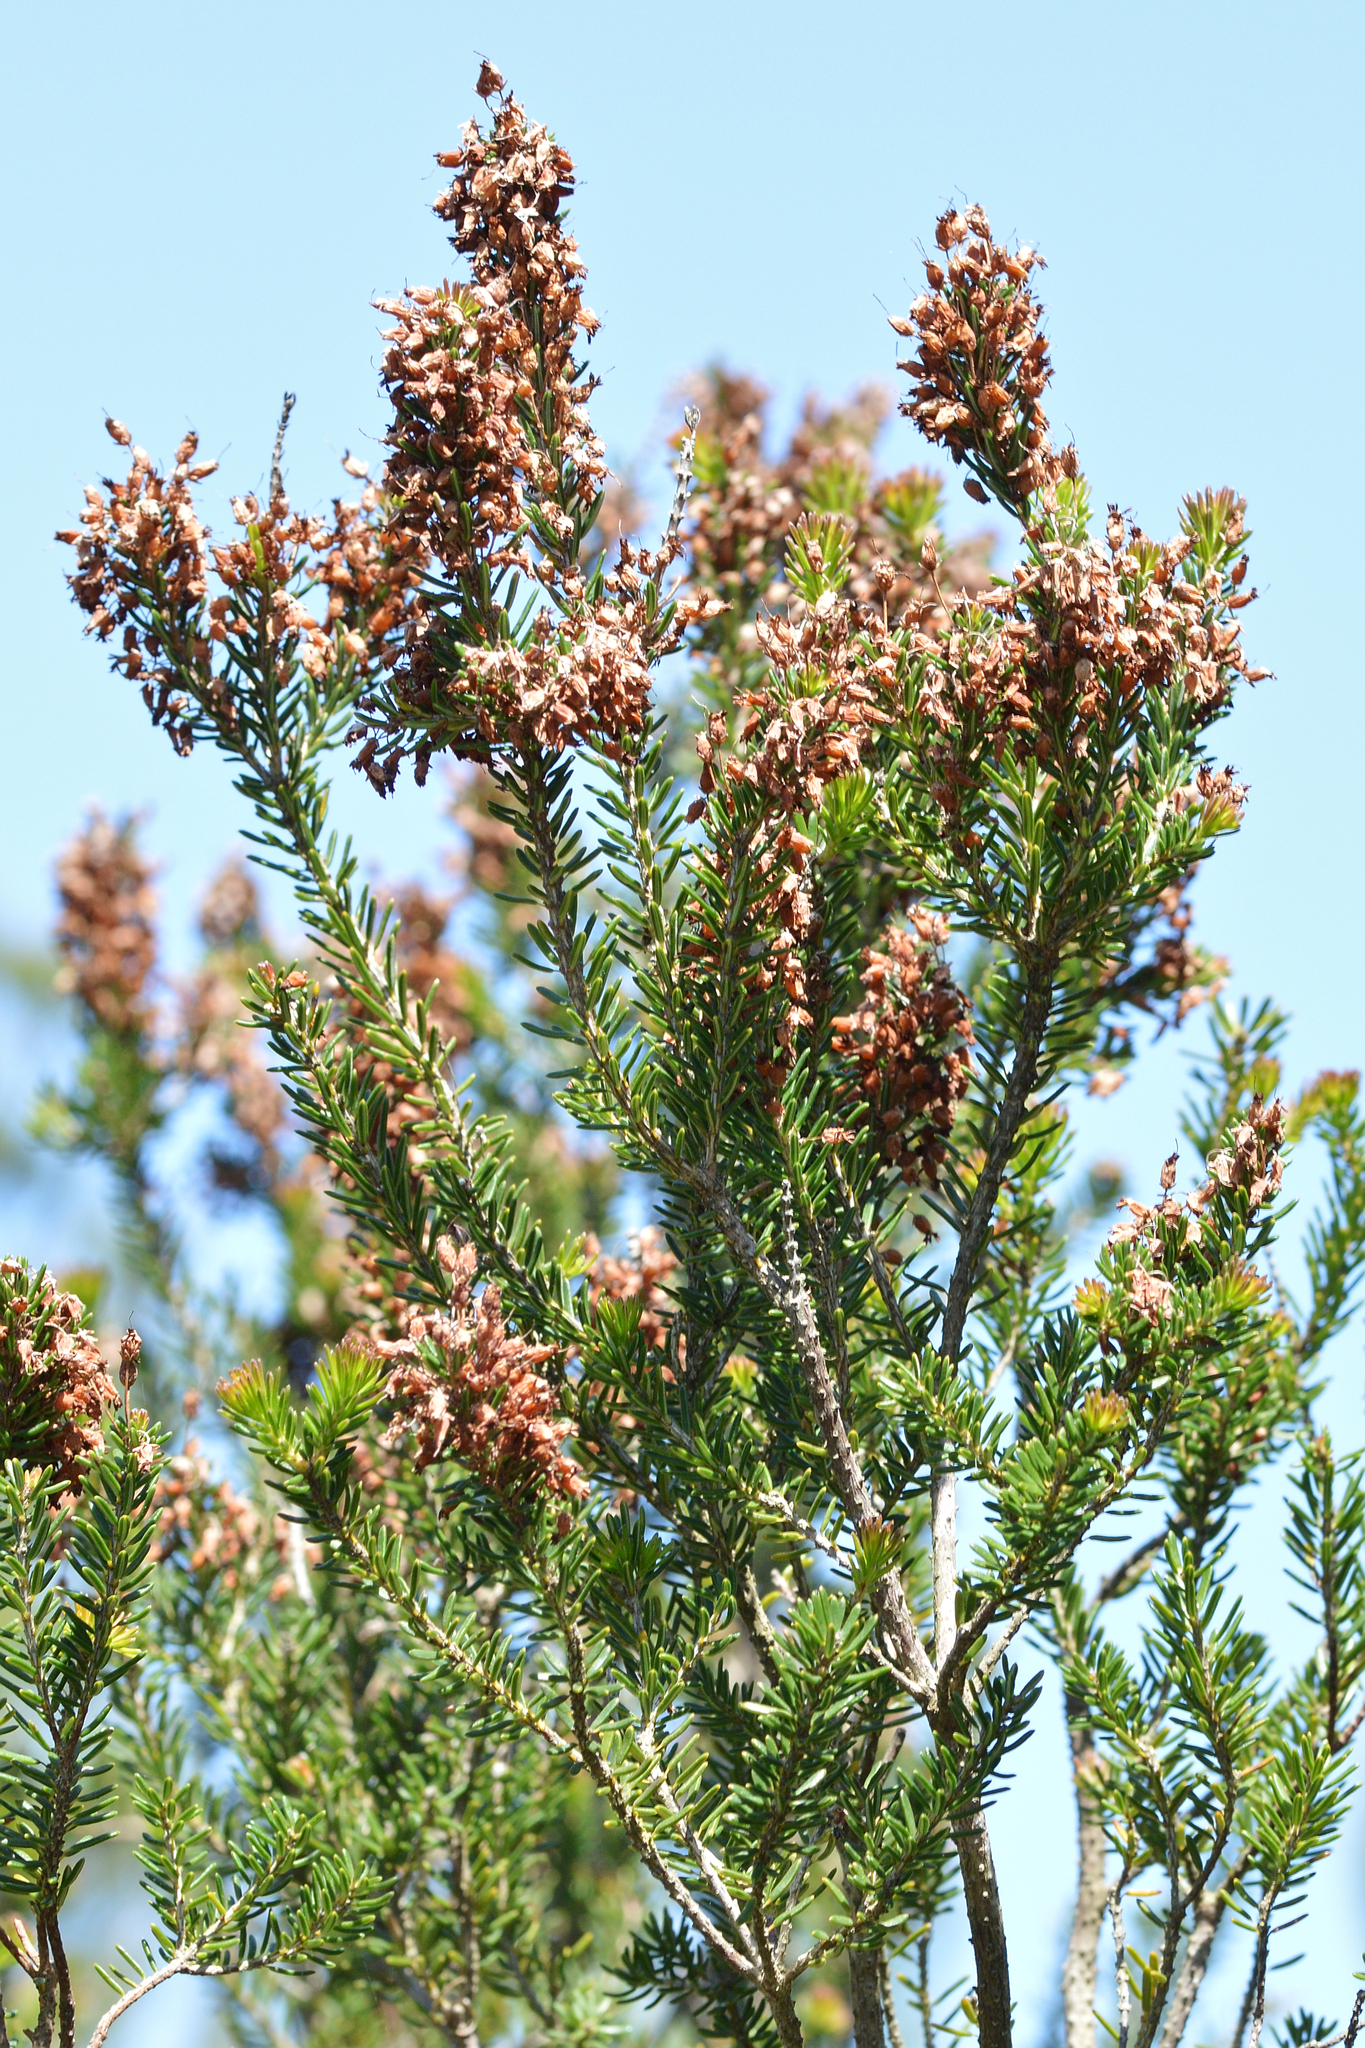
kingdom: Plantae
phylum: Tracheophyta
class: Magnoliopsida
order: Ericales
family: Ericaceae
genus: Erica
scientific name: Erica multiflora
